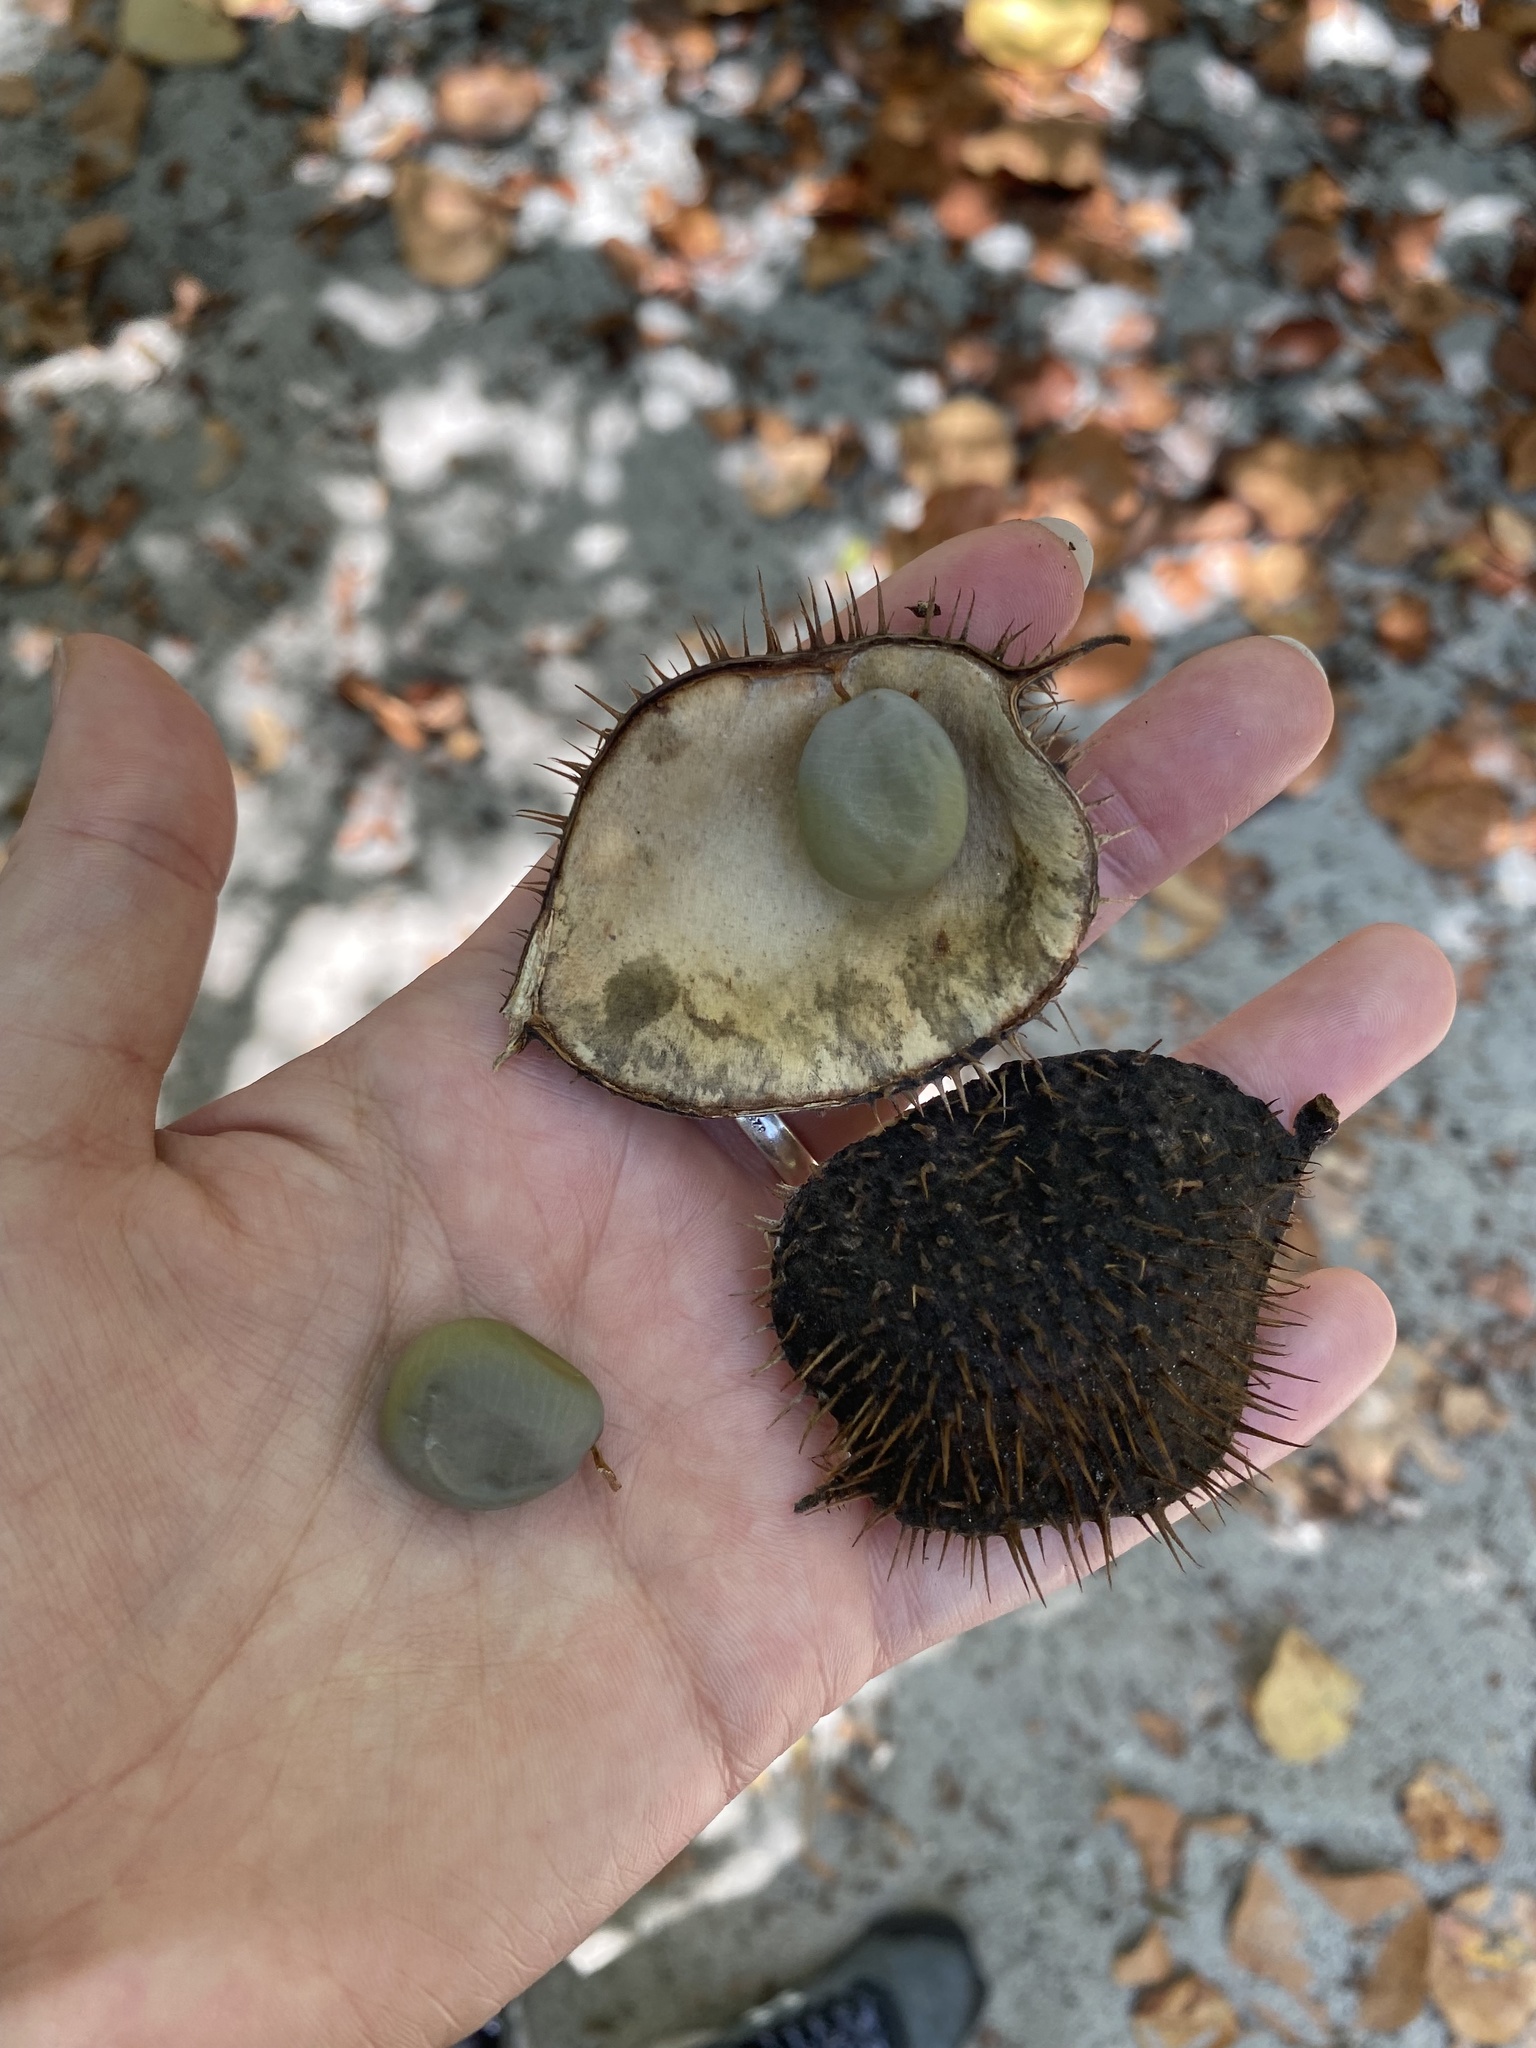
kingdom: Plantae
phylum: Tracheophyta
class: Magnoliopsida
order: Fabales
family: Fabaceae
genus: Guilandina
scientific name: Guilandina bonduc
